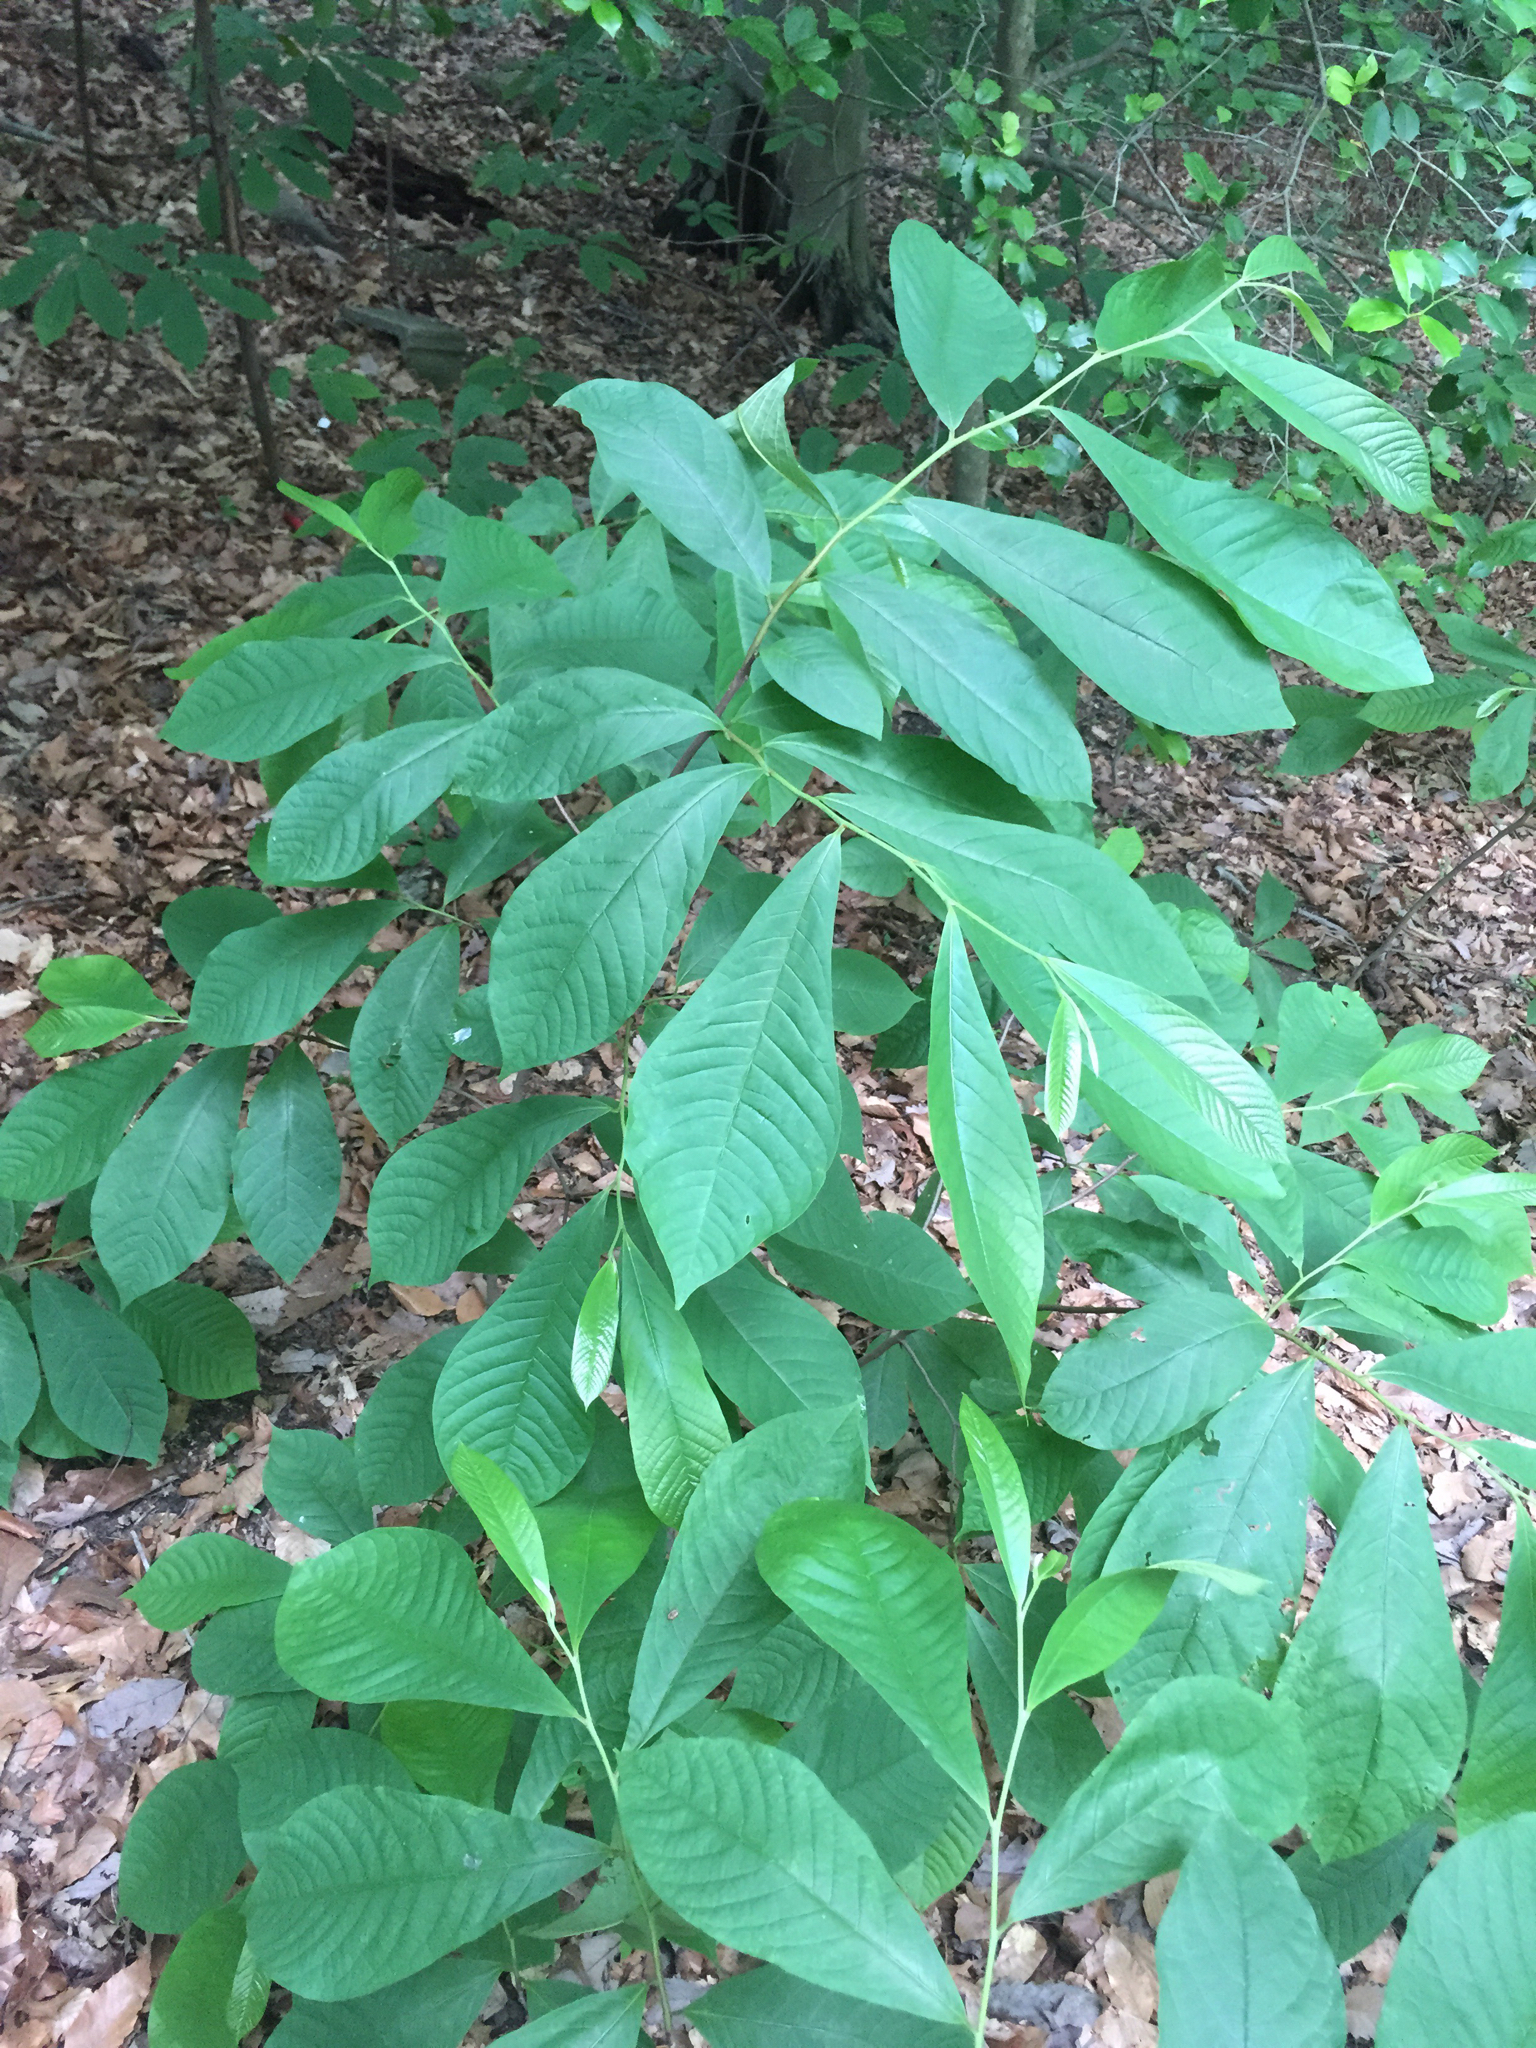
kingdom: Plantae
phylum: Tracheophyta
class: Magnoliopsida
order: Magnoliales
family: Annonaceae
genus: Asimina
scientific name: Asimina triloba
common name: Dog-banana
